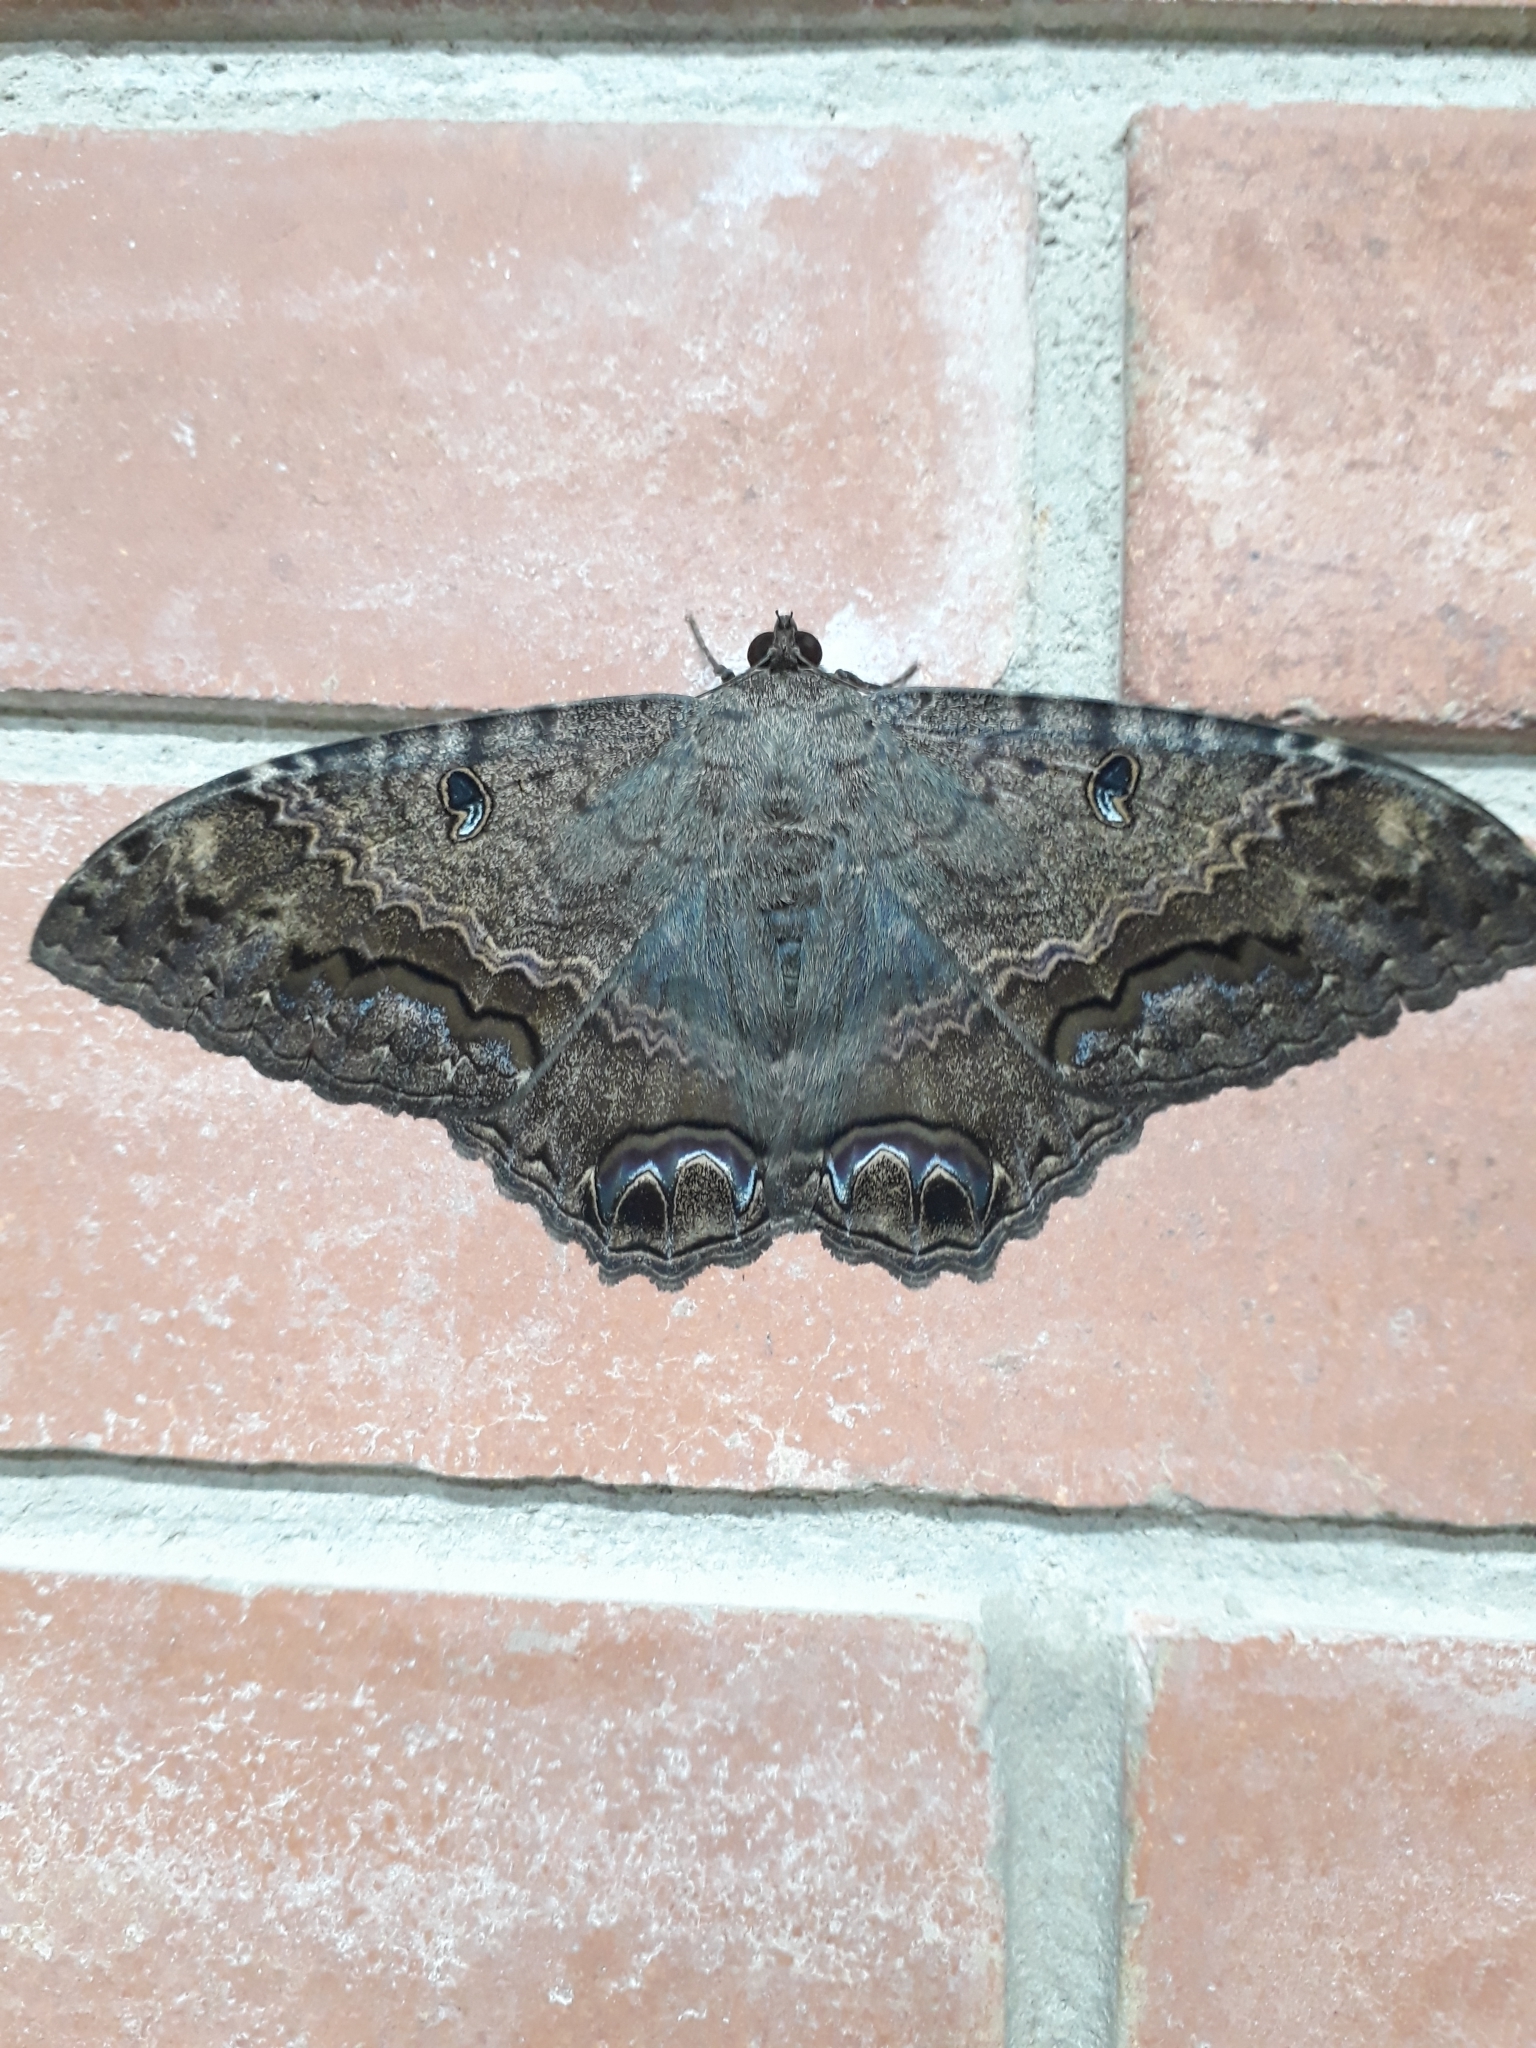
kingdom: Animalia
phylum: Arthropoda
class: Insecta
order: Lepidoptera
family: Erebidae
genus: Ascalapha
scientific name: Ascalapha odorata
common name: Black witch
